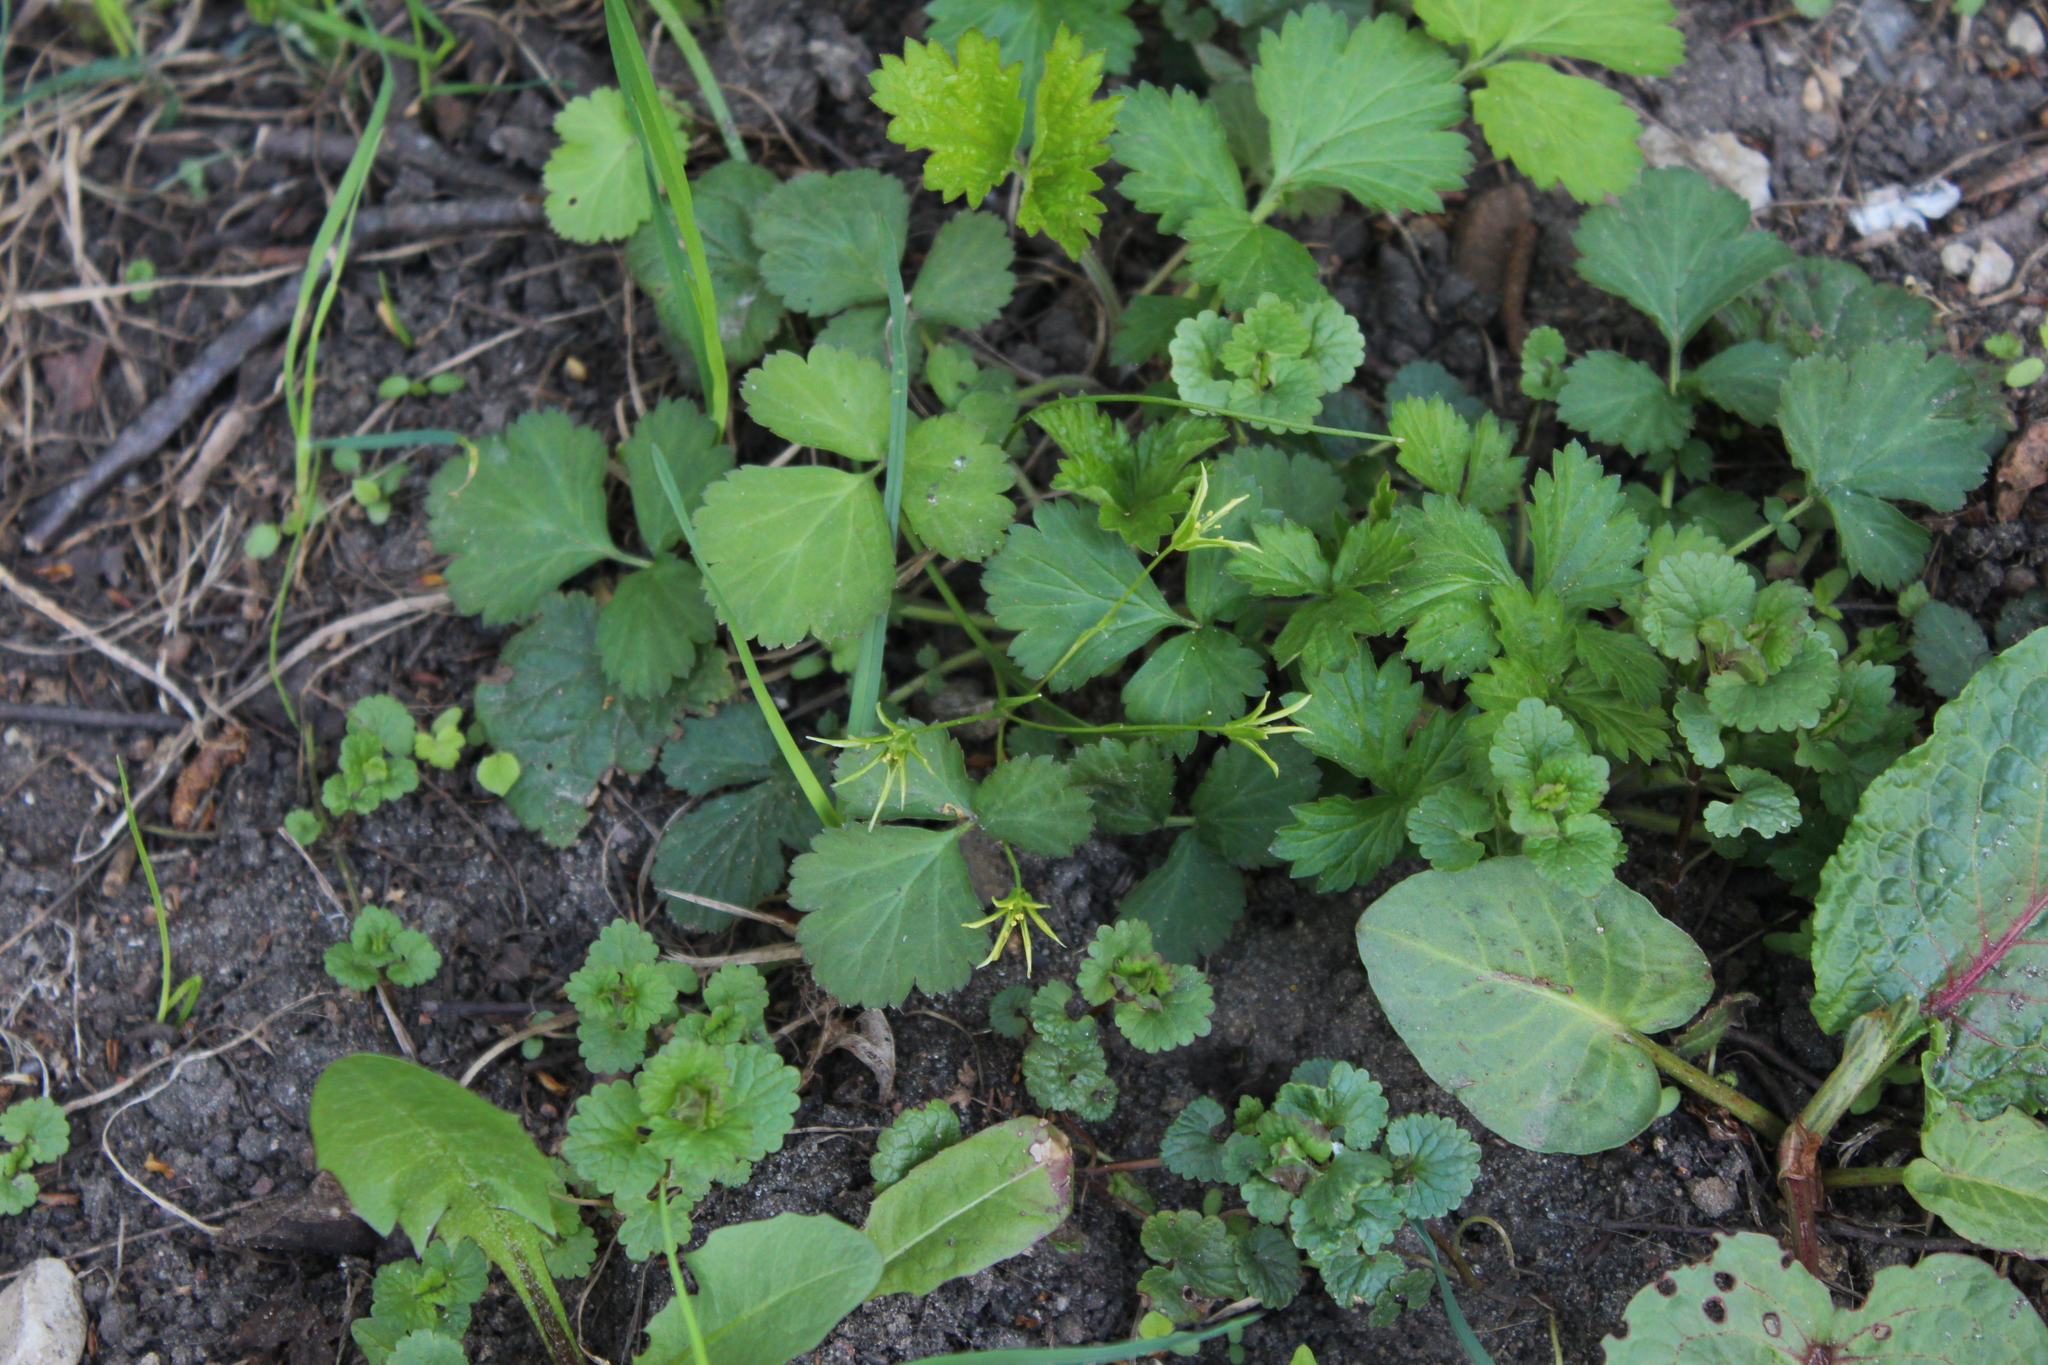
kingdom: Plantae
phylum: Tracheophyta
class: Liliopsida
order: Liliales
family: Liliaceae
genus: Gagea
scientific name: Gagea minima
